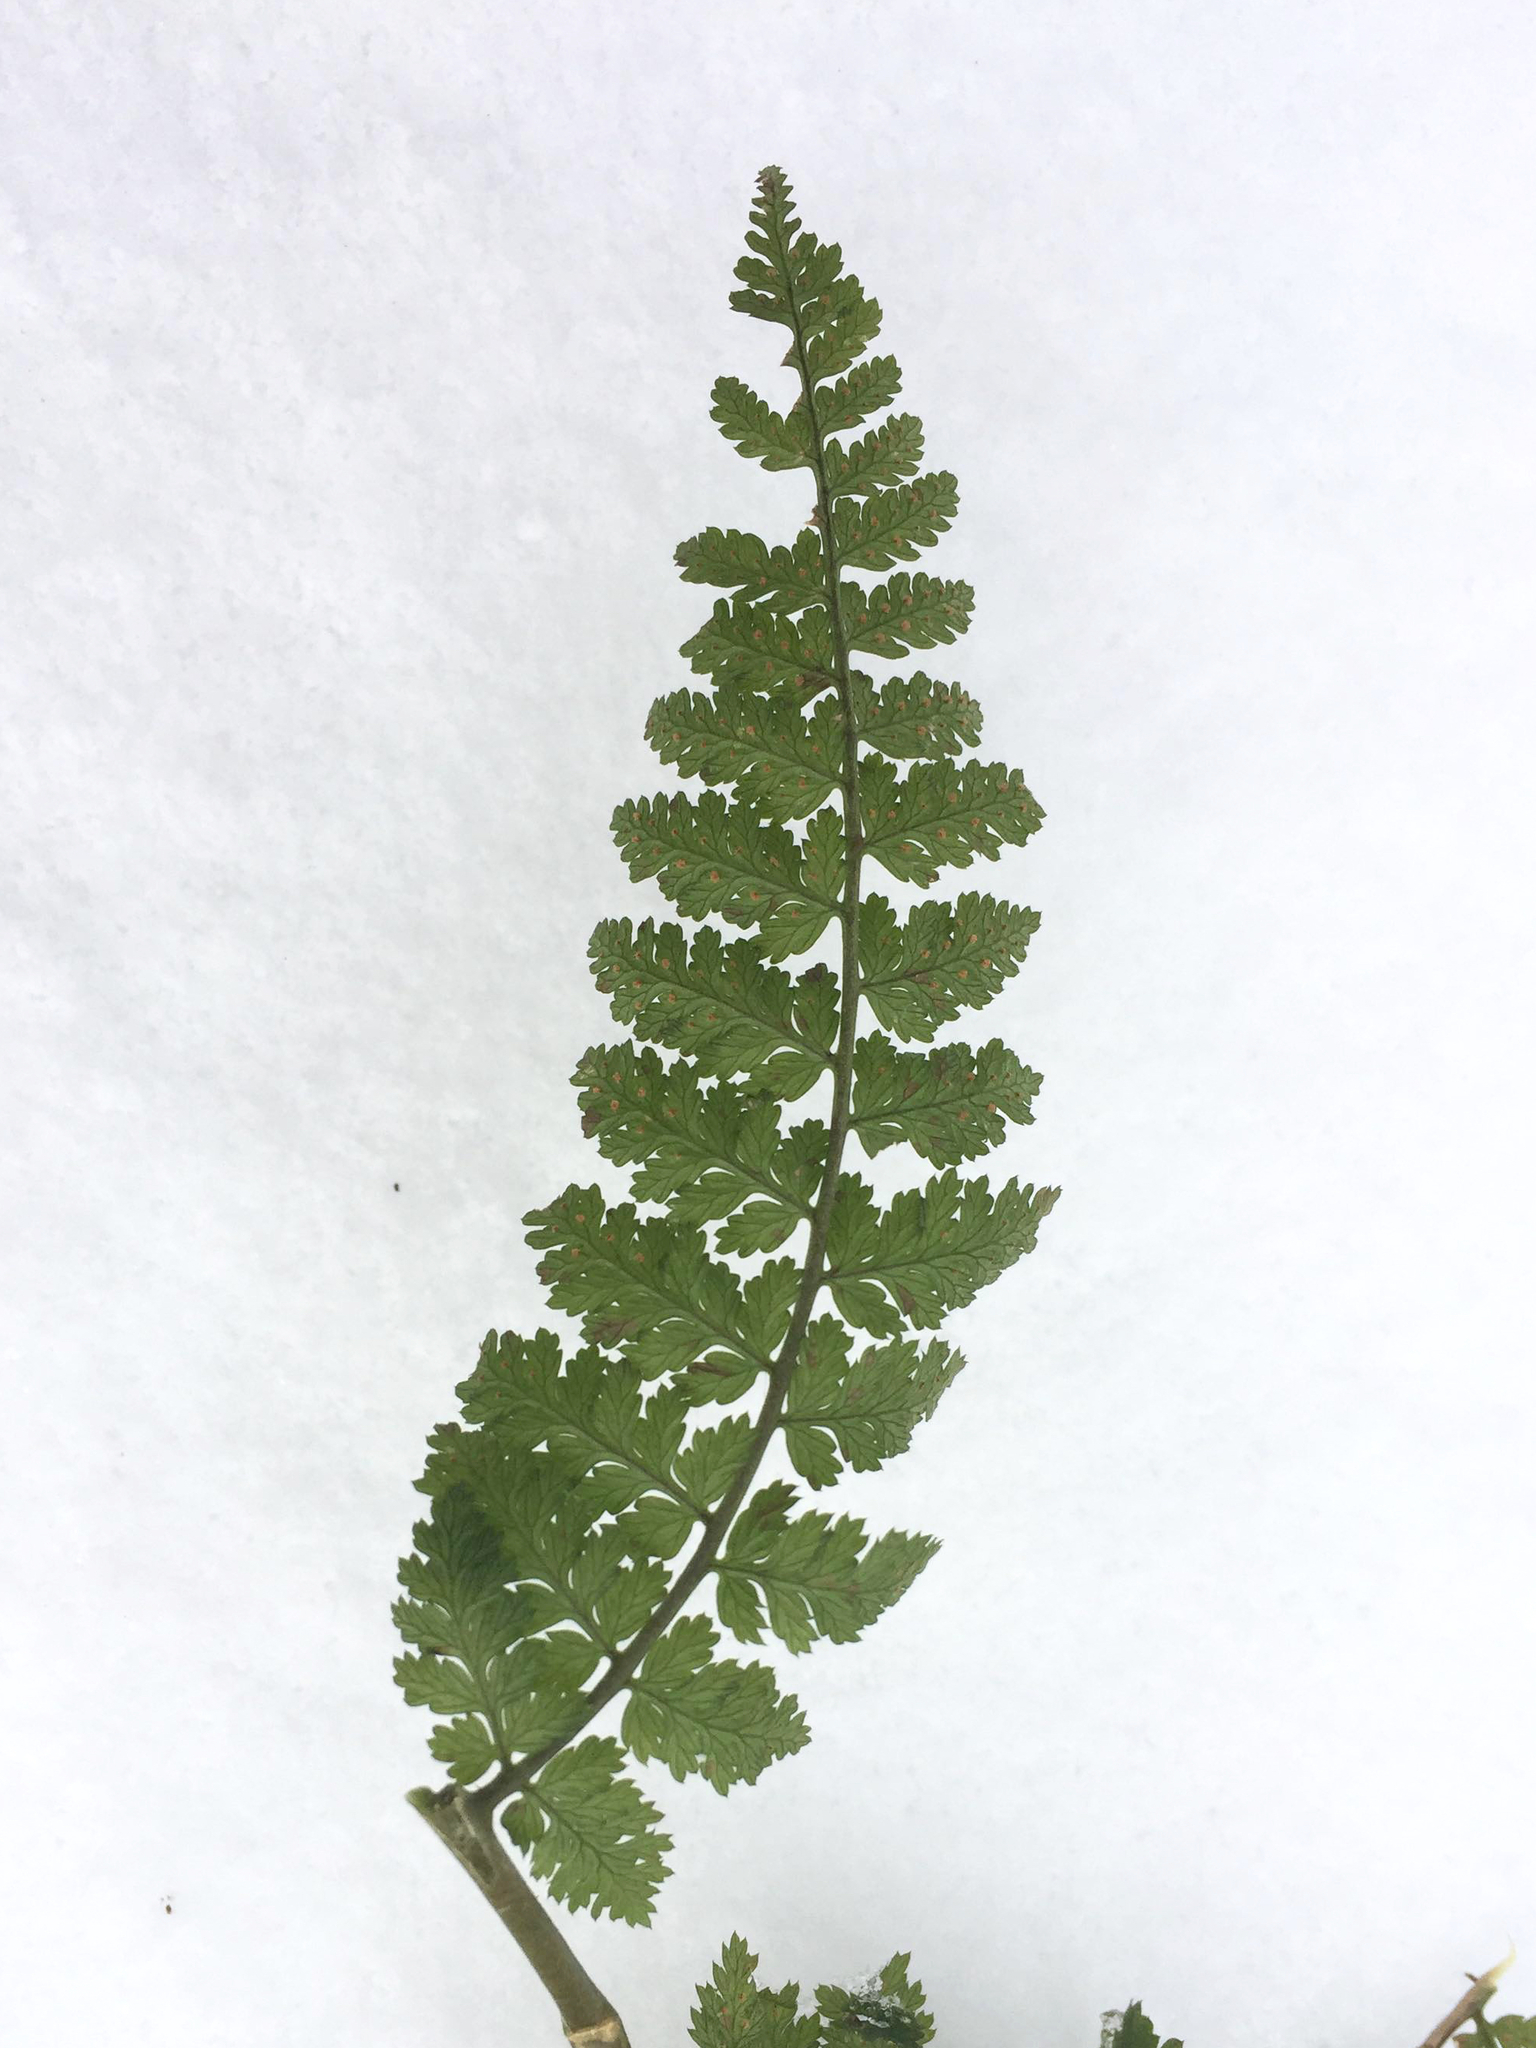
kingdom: Plantae
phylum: Tracheophyta
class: Polypodiopsida
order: Polypodiales
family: Dryopteridaceae
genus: Dryopteris
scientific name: Dryopteris intermedia
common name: Evergreen wood fern
